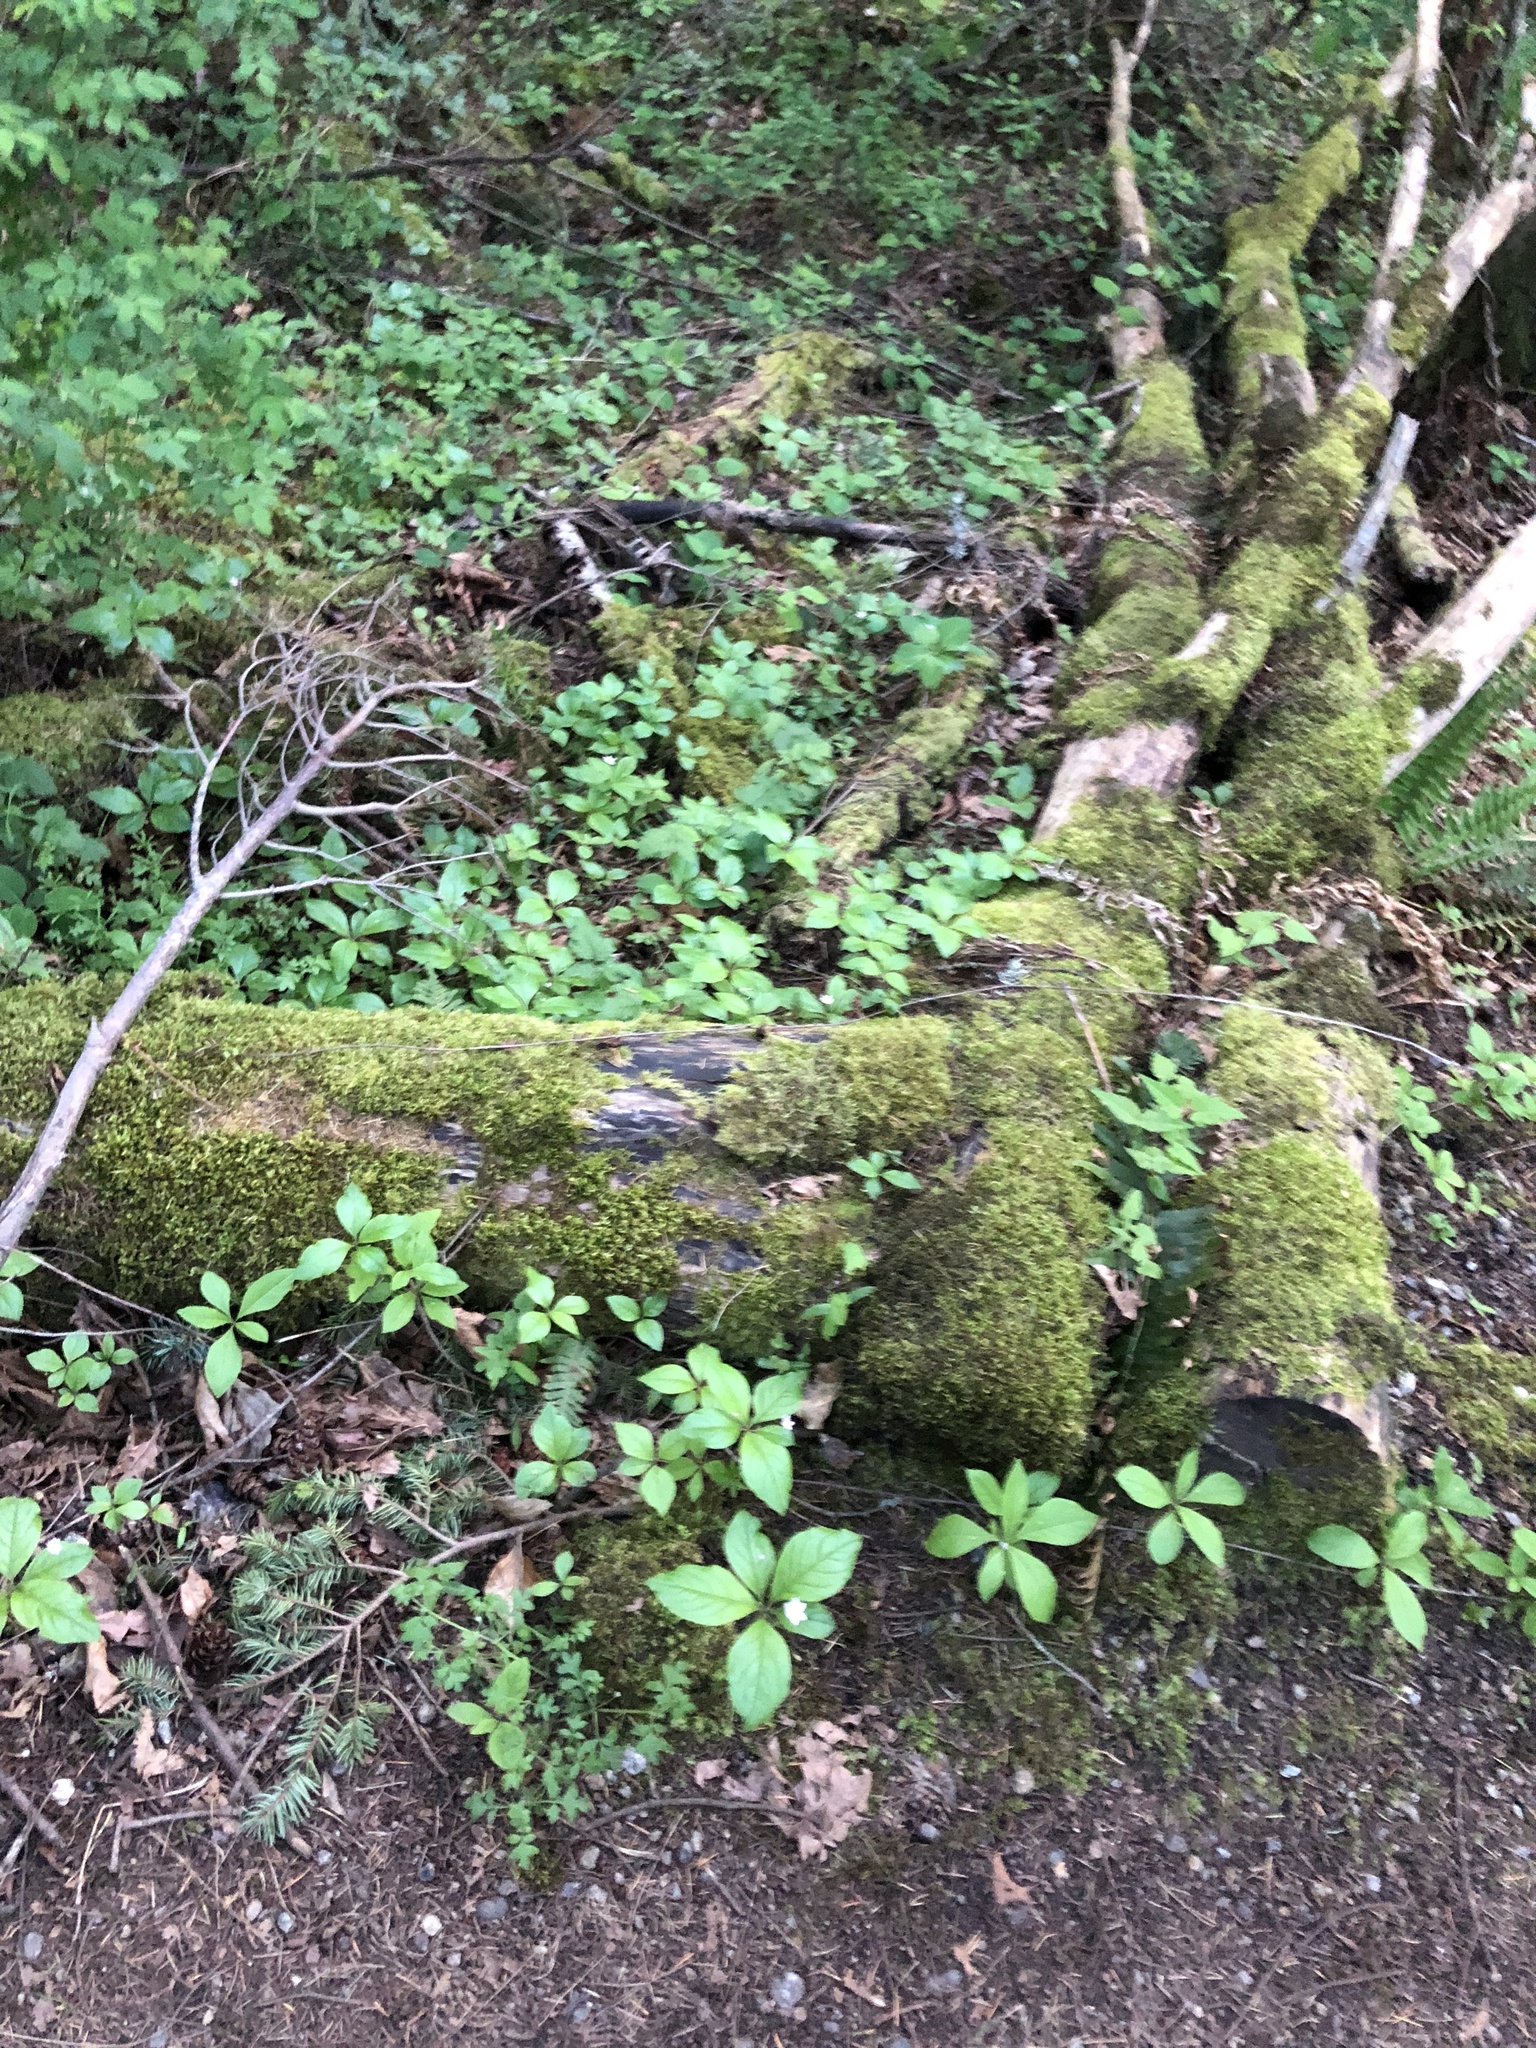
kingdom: Plantae
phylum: Tracheophyta
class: Magnoliopsida
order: Ericales
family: Primulaceae
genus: Lysimachia
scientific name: Lysimachia latifolia
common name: Pacific starflower
